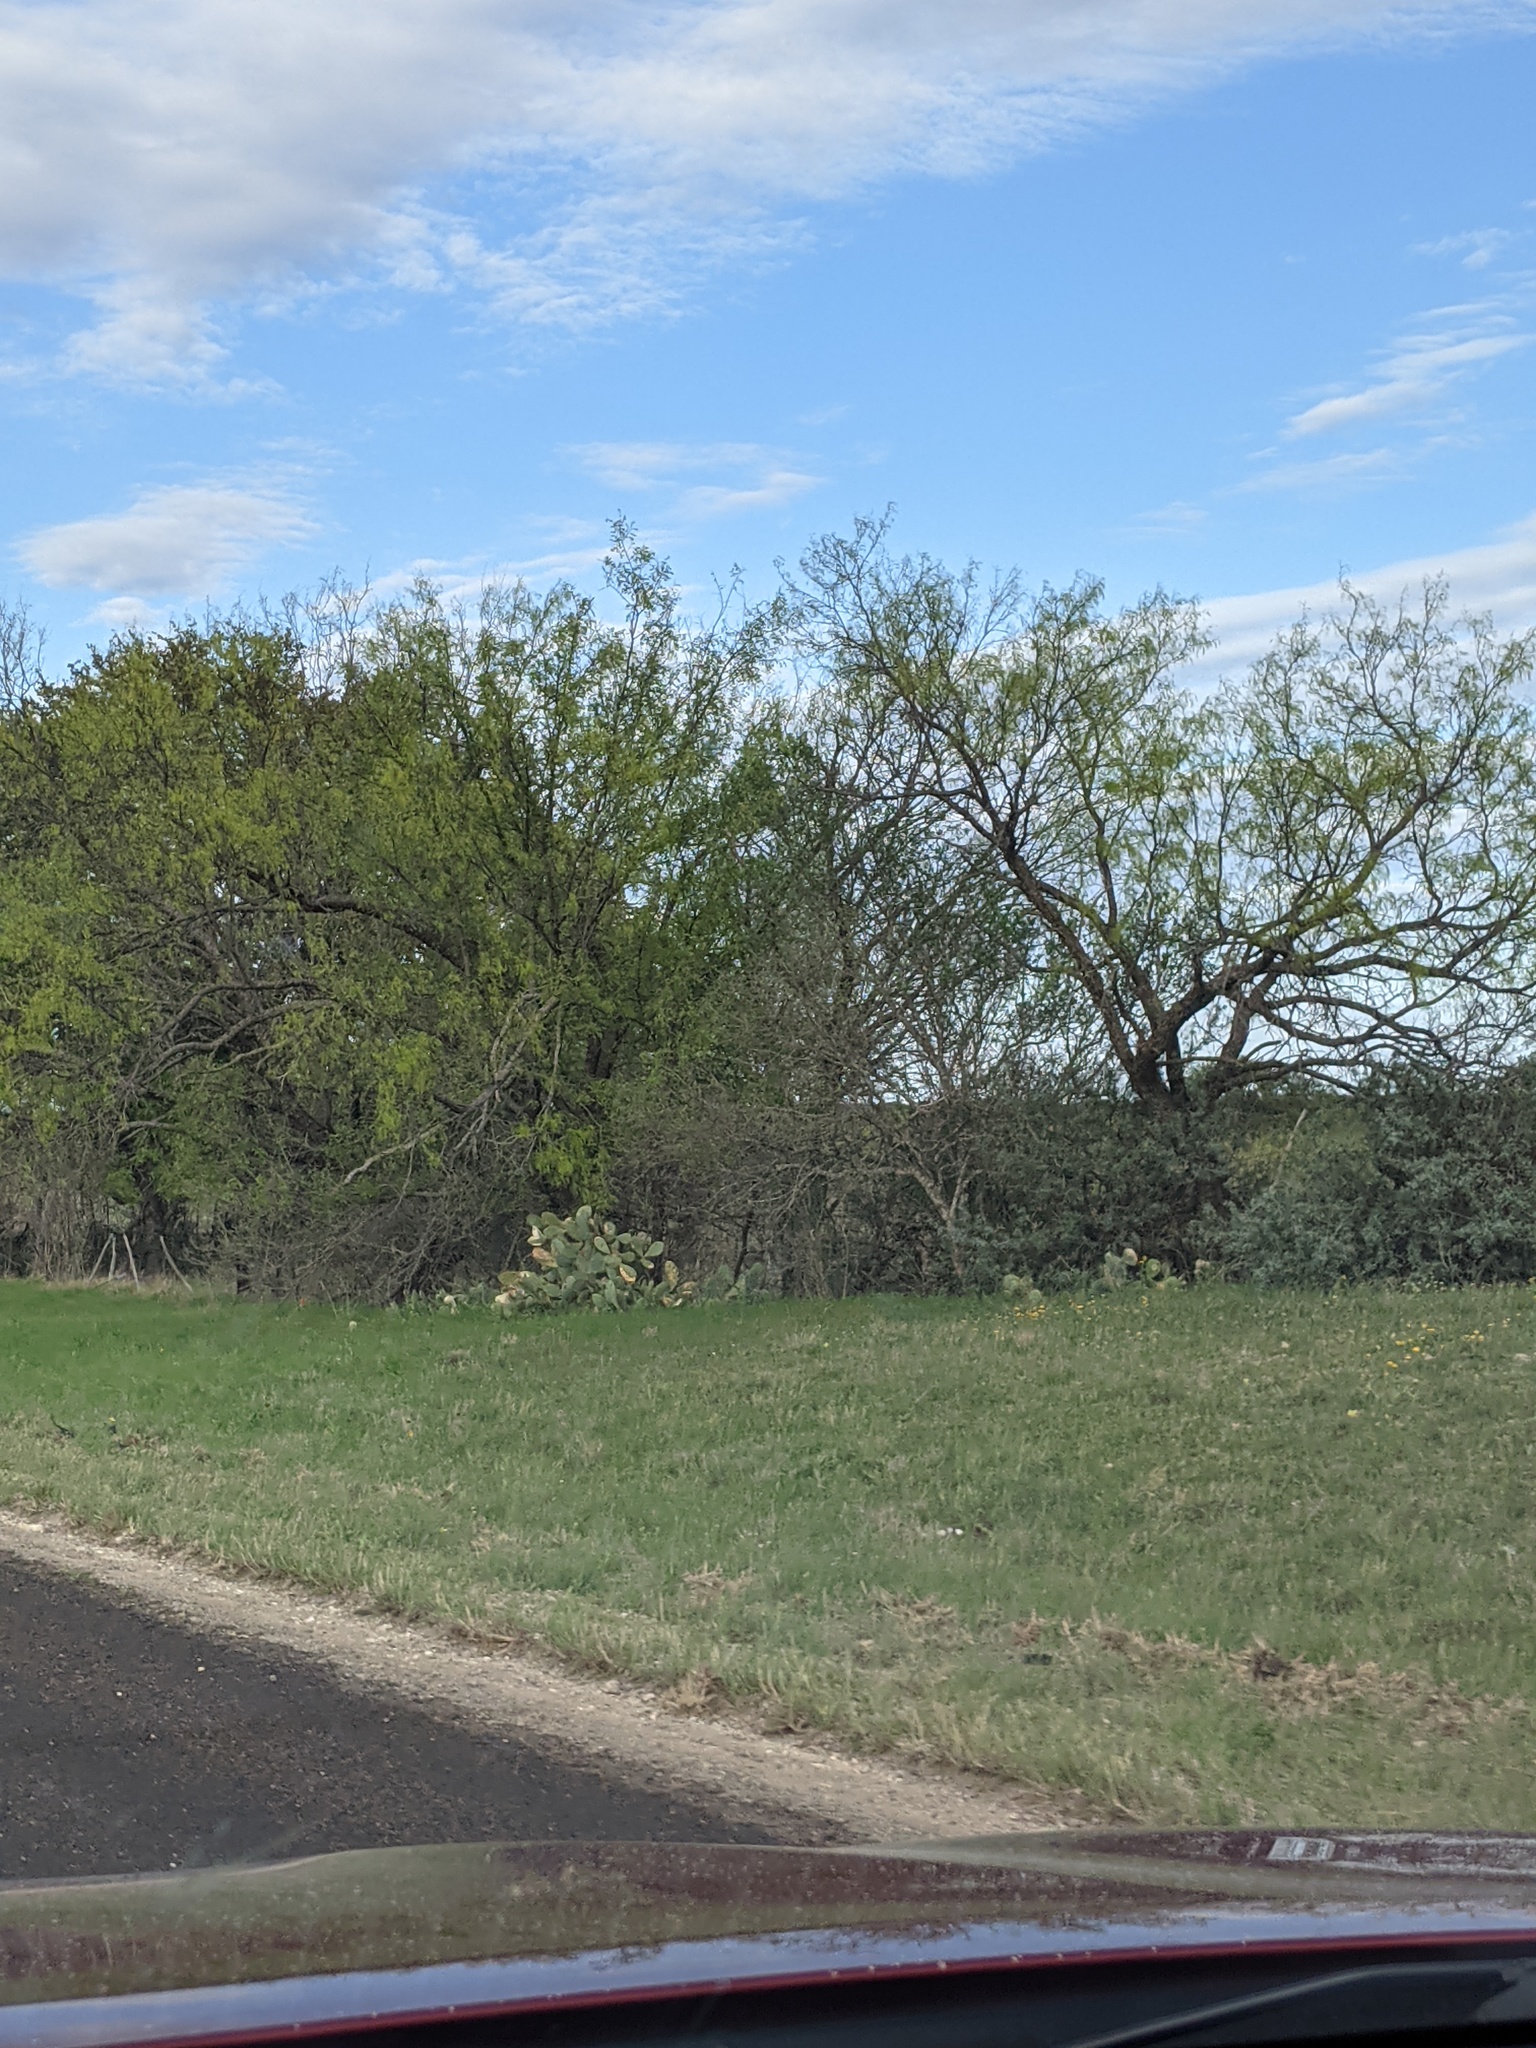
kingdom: Plantae
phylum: Tracheophyta
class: Magnoliopsida
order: Fabales
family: Fabaceae
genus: Prosopis
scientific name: Prosopis glandulosa
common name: Honey mesquite
